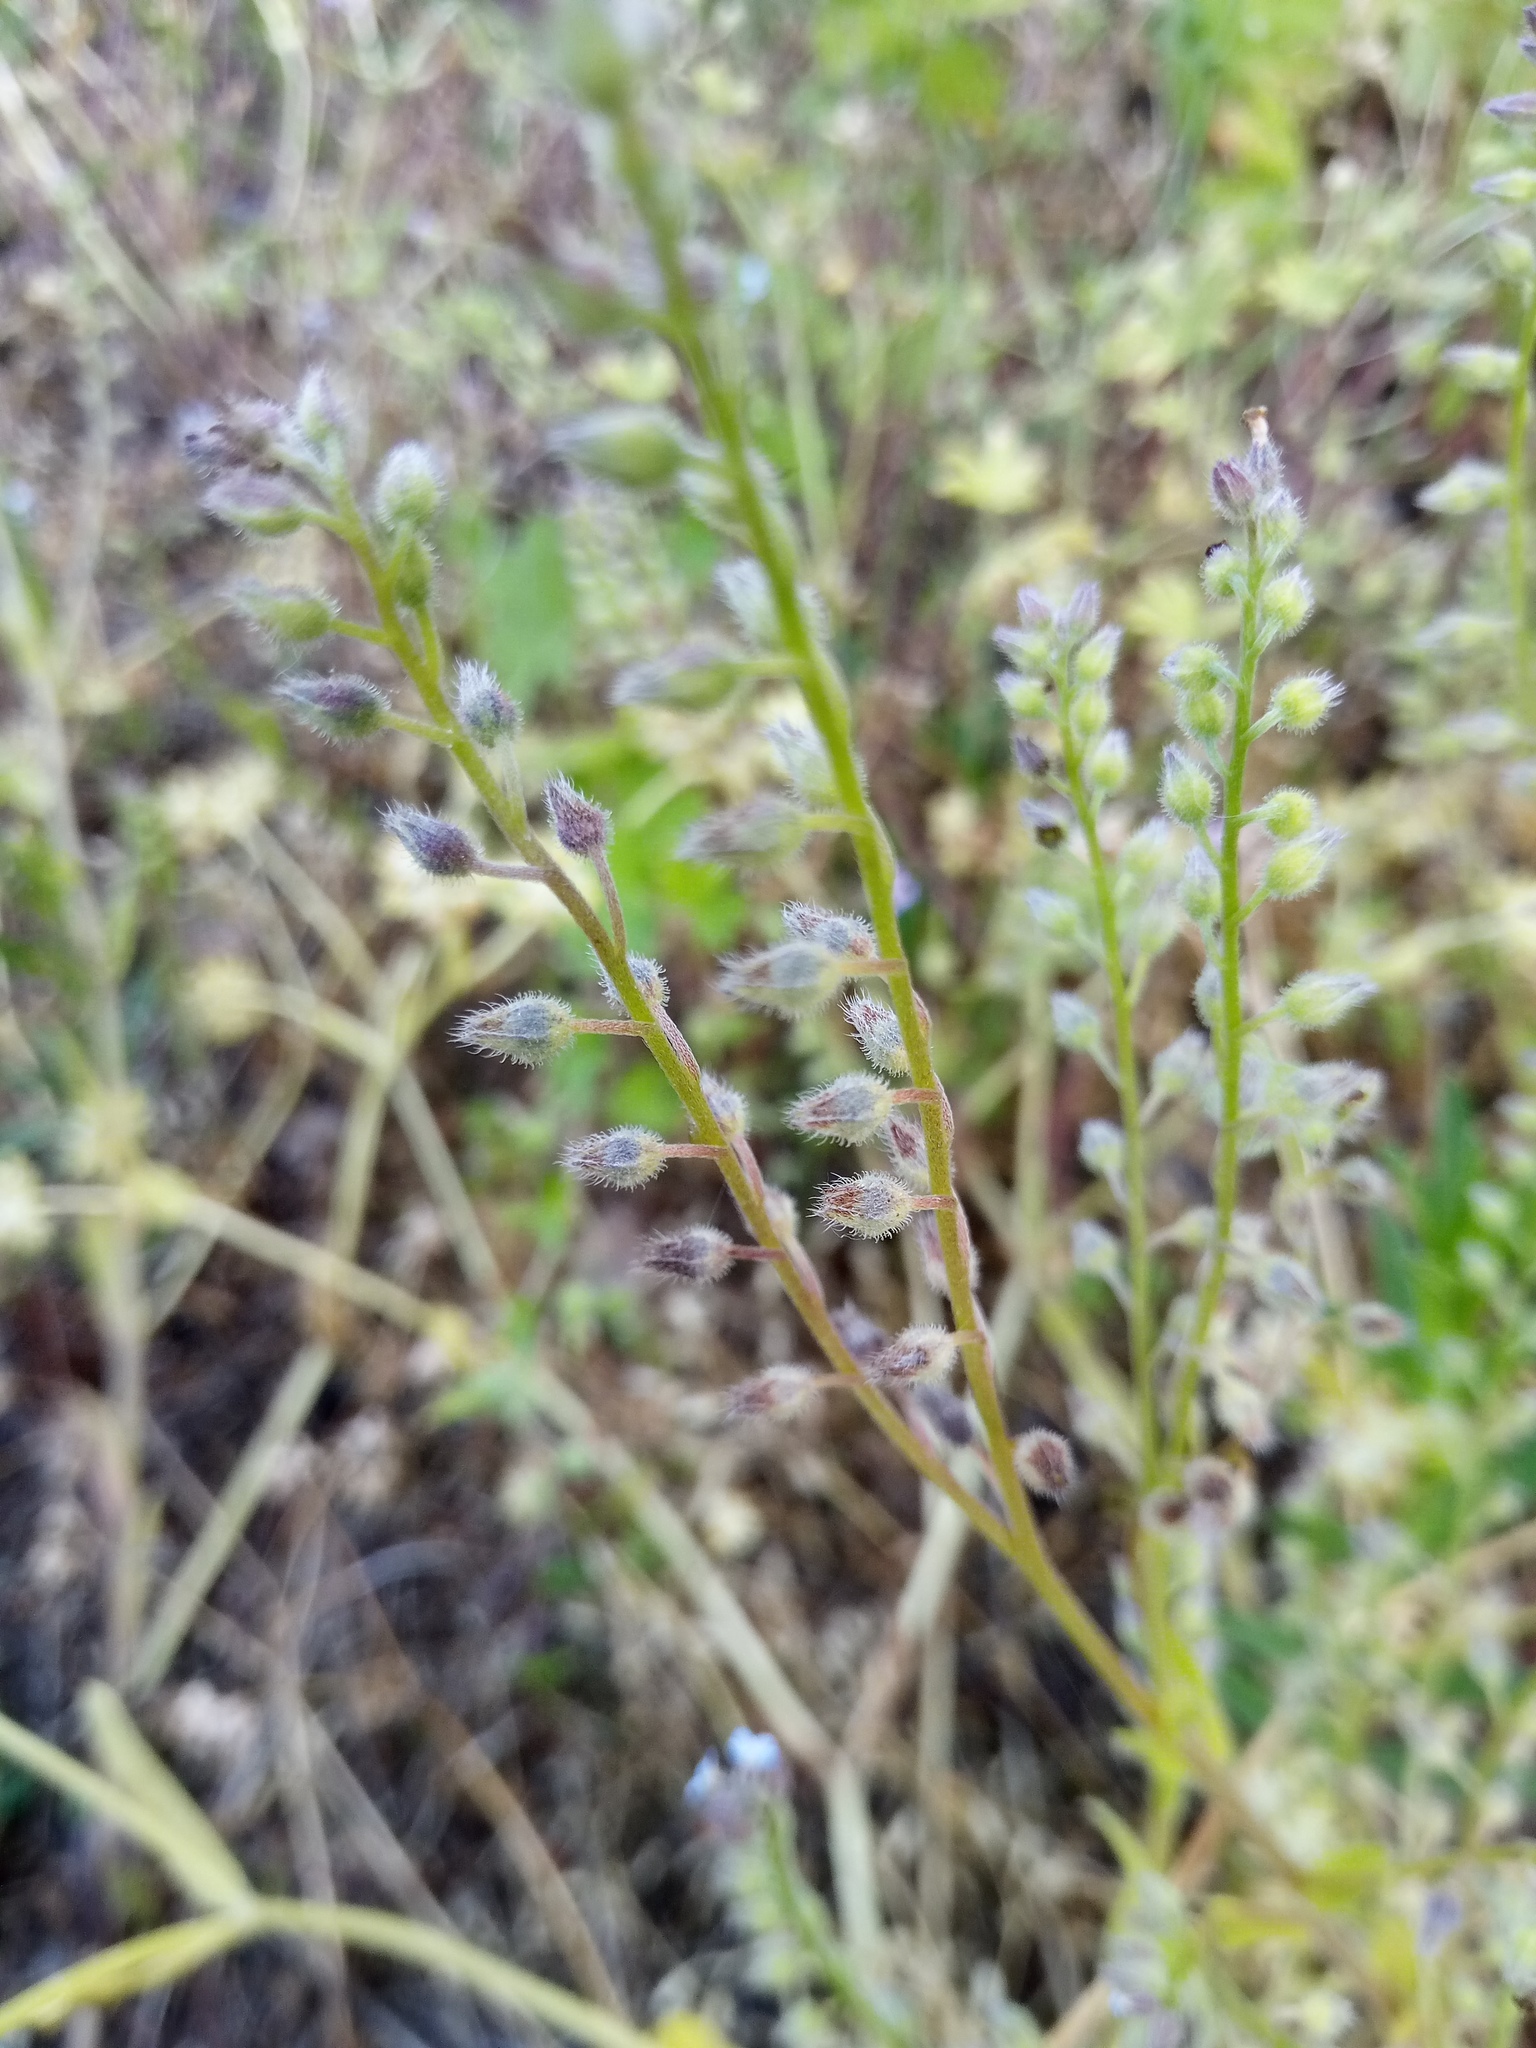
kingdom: Plantae
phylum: Tracheophyta
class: Magnoliopsida
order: Boraginales
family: Boraginaceae
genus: Myosotis
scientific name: Myosotis arvensis
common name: Field forget-me-not
